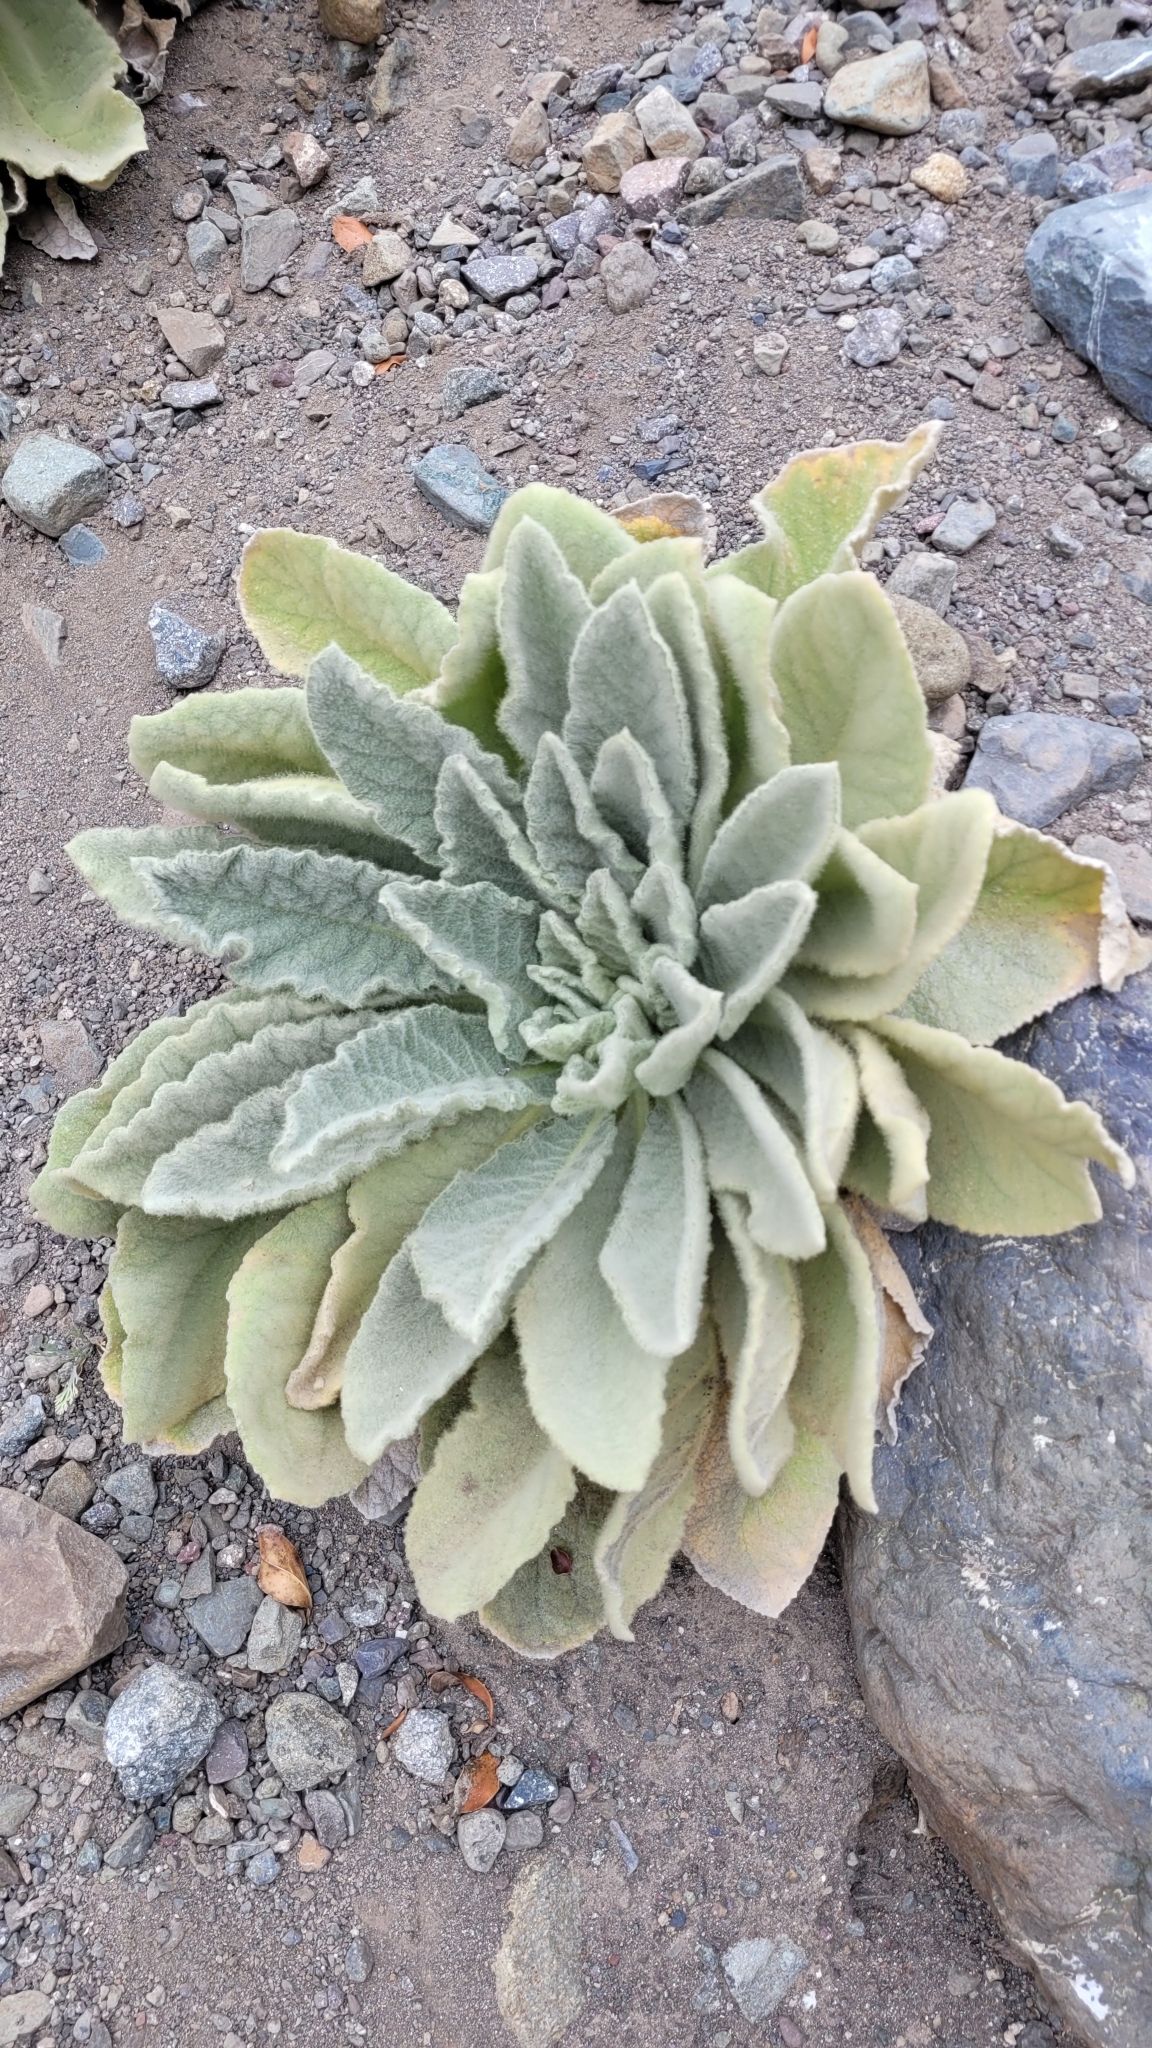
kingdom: Plantae
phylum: Tracheophyta
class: Magnoliopsida
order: Lamiales
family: Scrophulariaceae
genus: Verbascum
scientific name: Verbascum thapsus
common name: Common mullein
